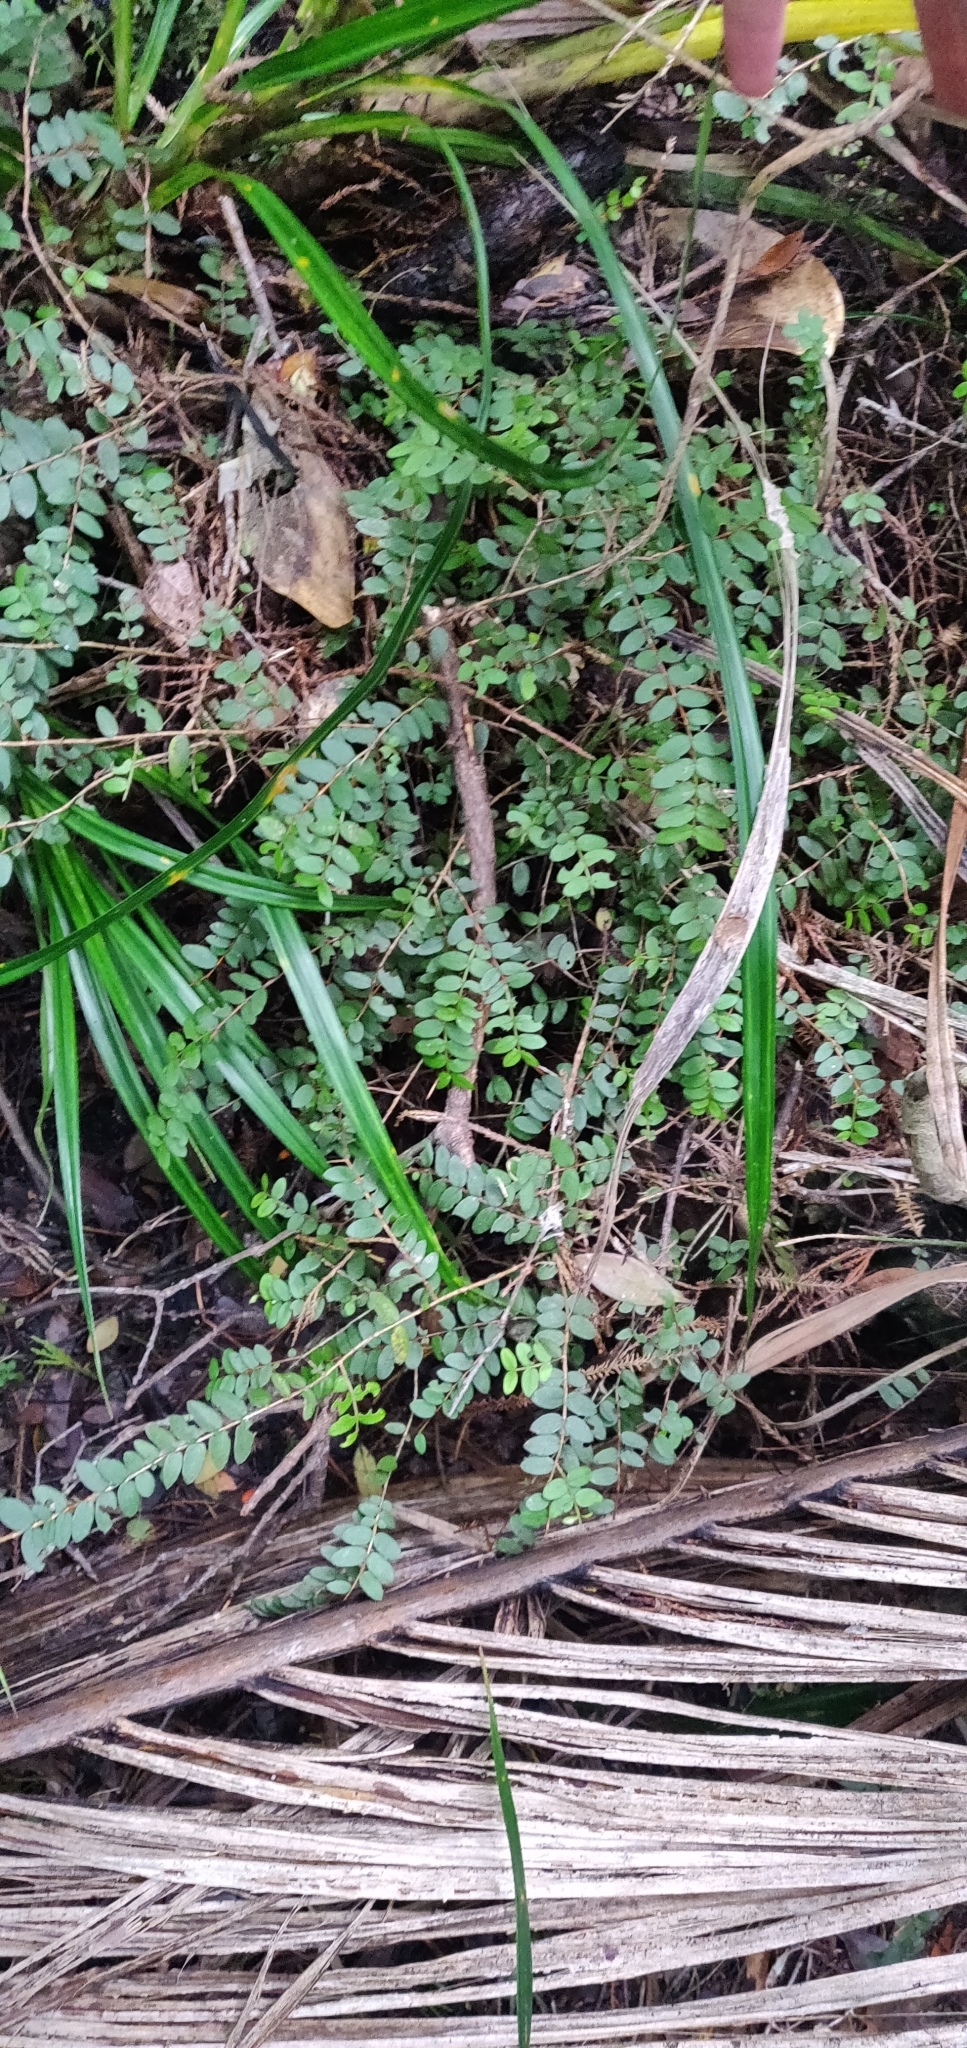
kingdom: Plantae
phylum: Tracheophyta
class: Magnoliopsida
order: Myrtales
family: Myrtaceae
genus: Metrosideros
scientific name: Metrosideros diffusa
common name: Small ratavine
